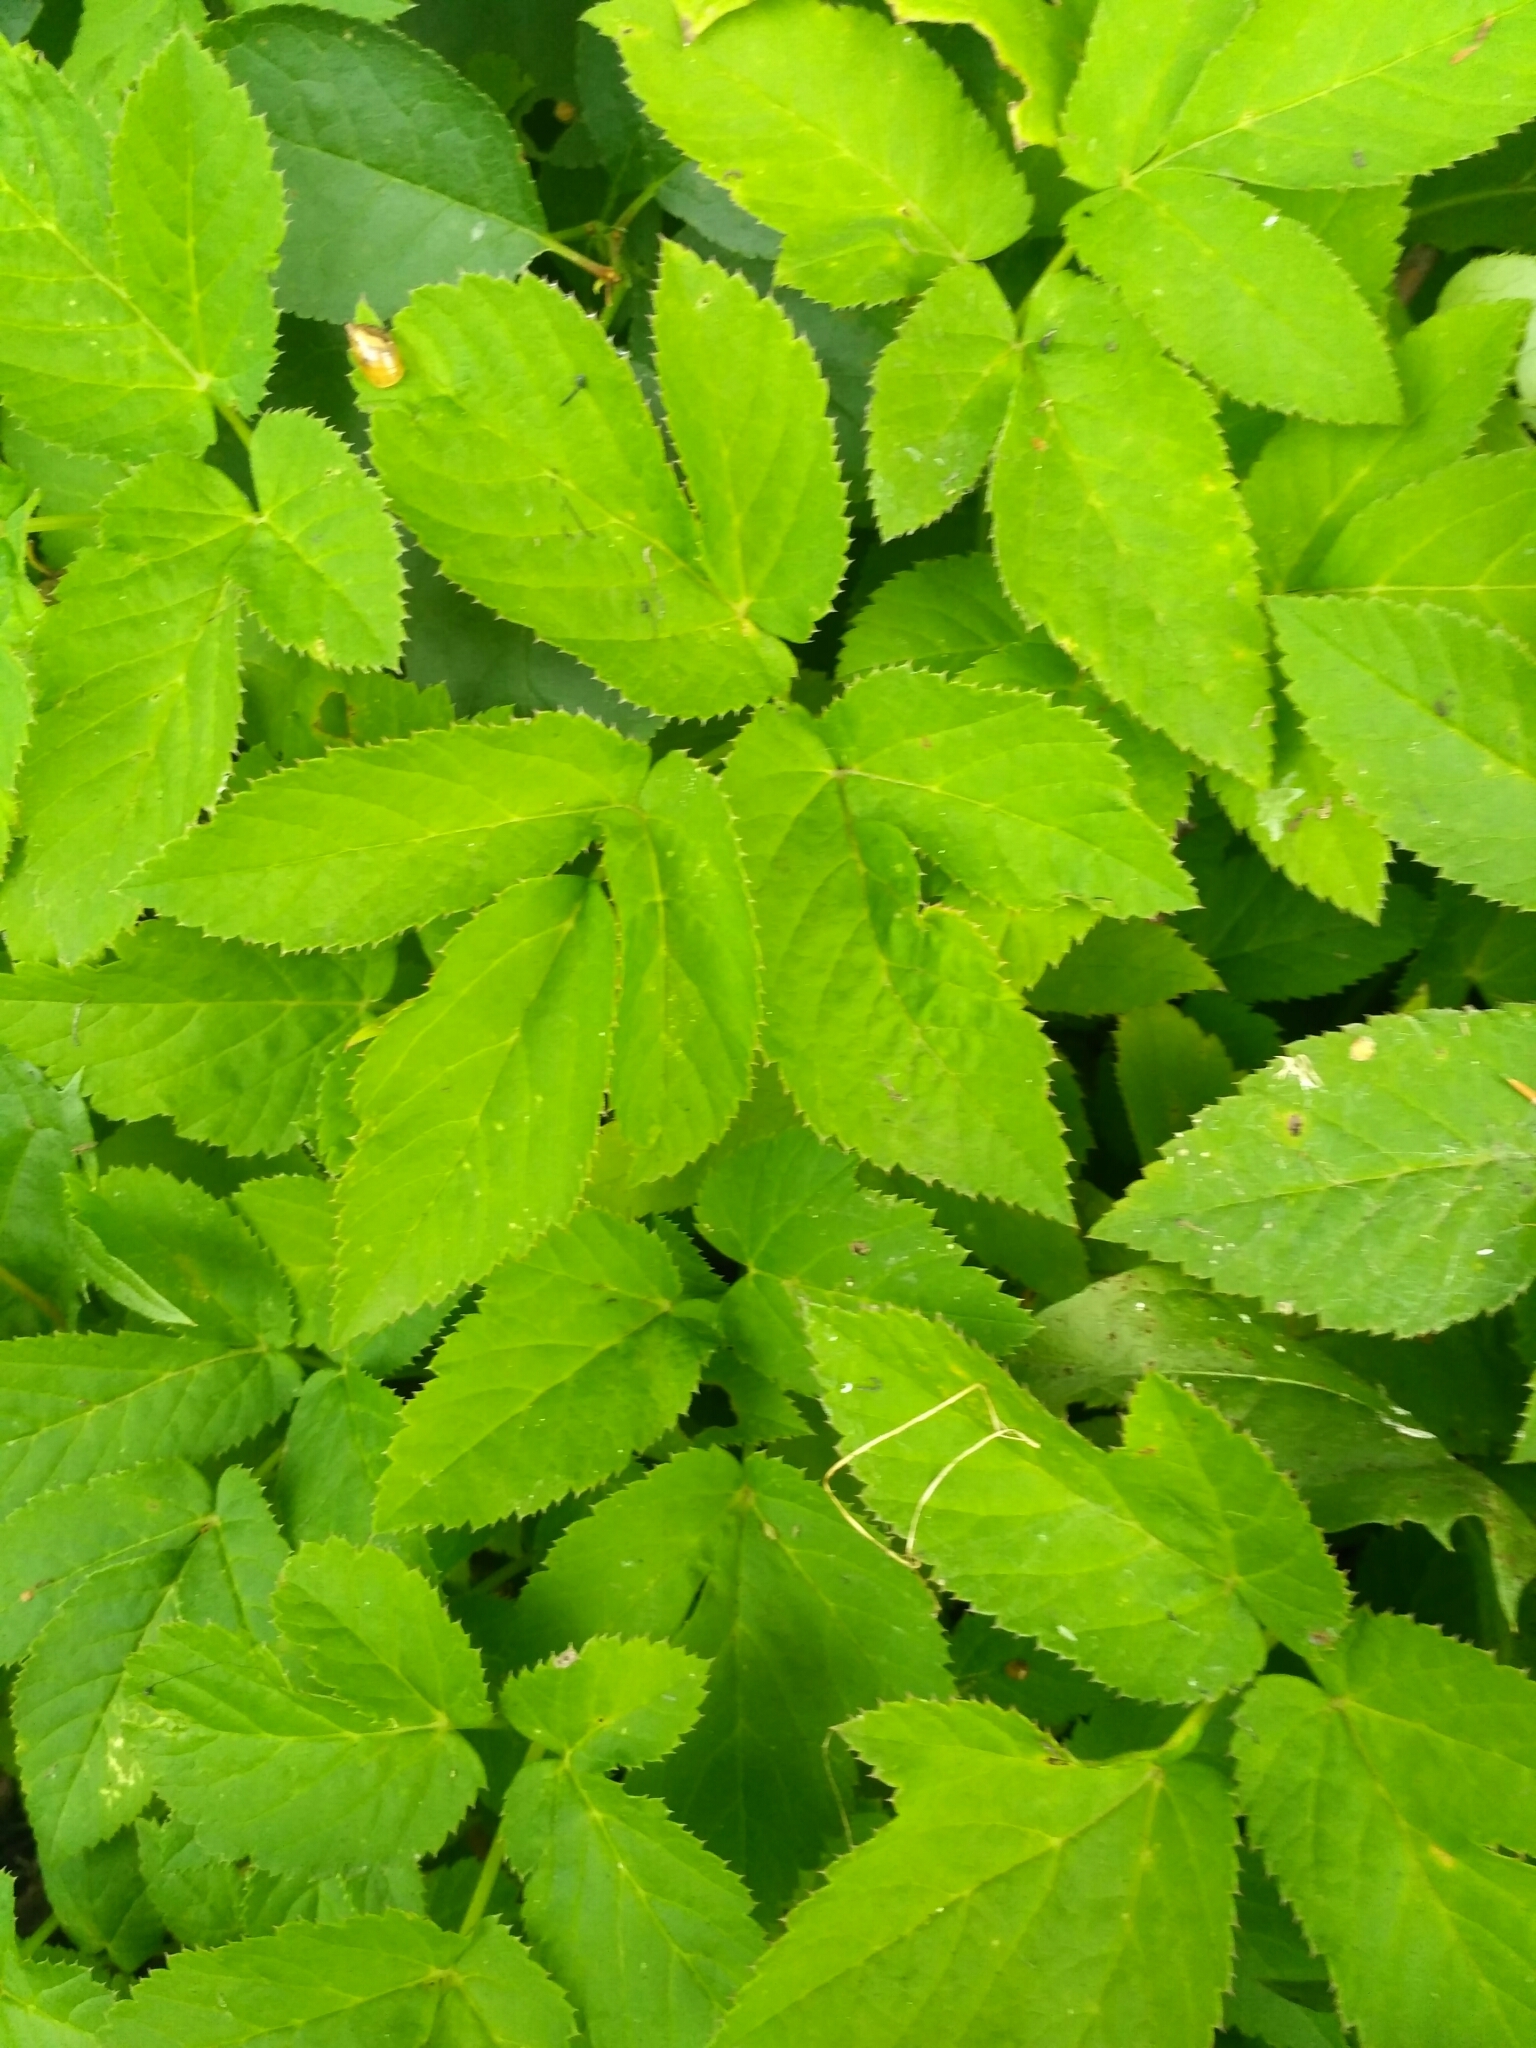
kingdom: Plantae
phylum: Tracheophyta
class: Magnoliopsida
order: Apiales
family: Apiaceae
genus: Aegopodium
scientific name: Aegopodium podagraria
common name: Ground-elder
